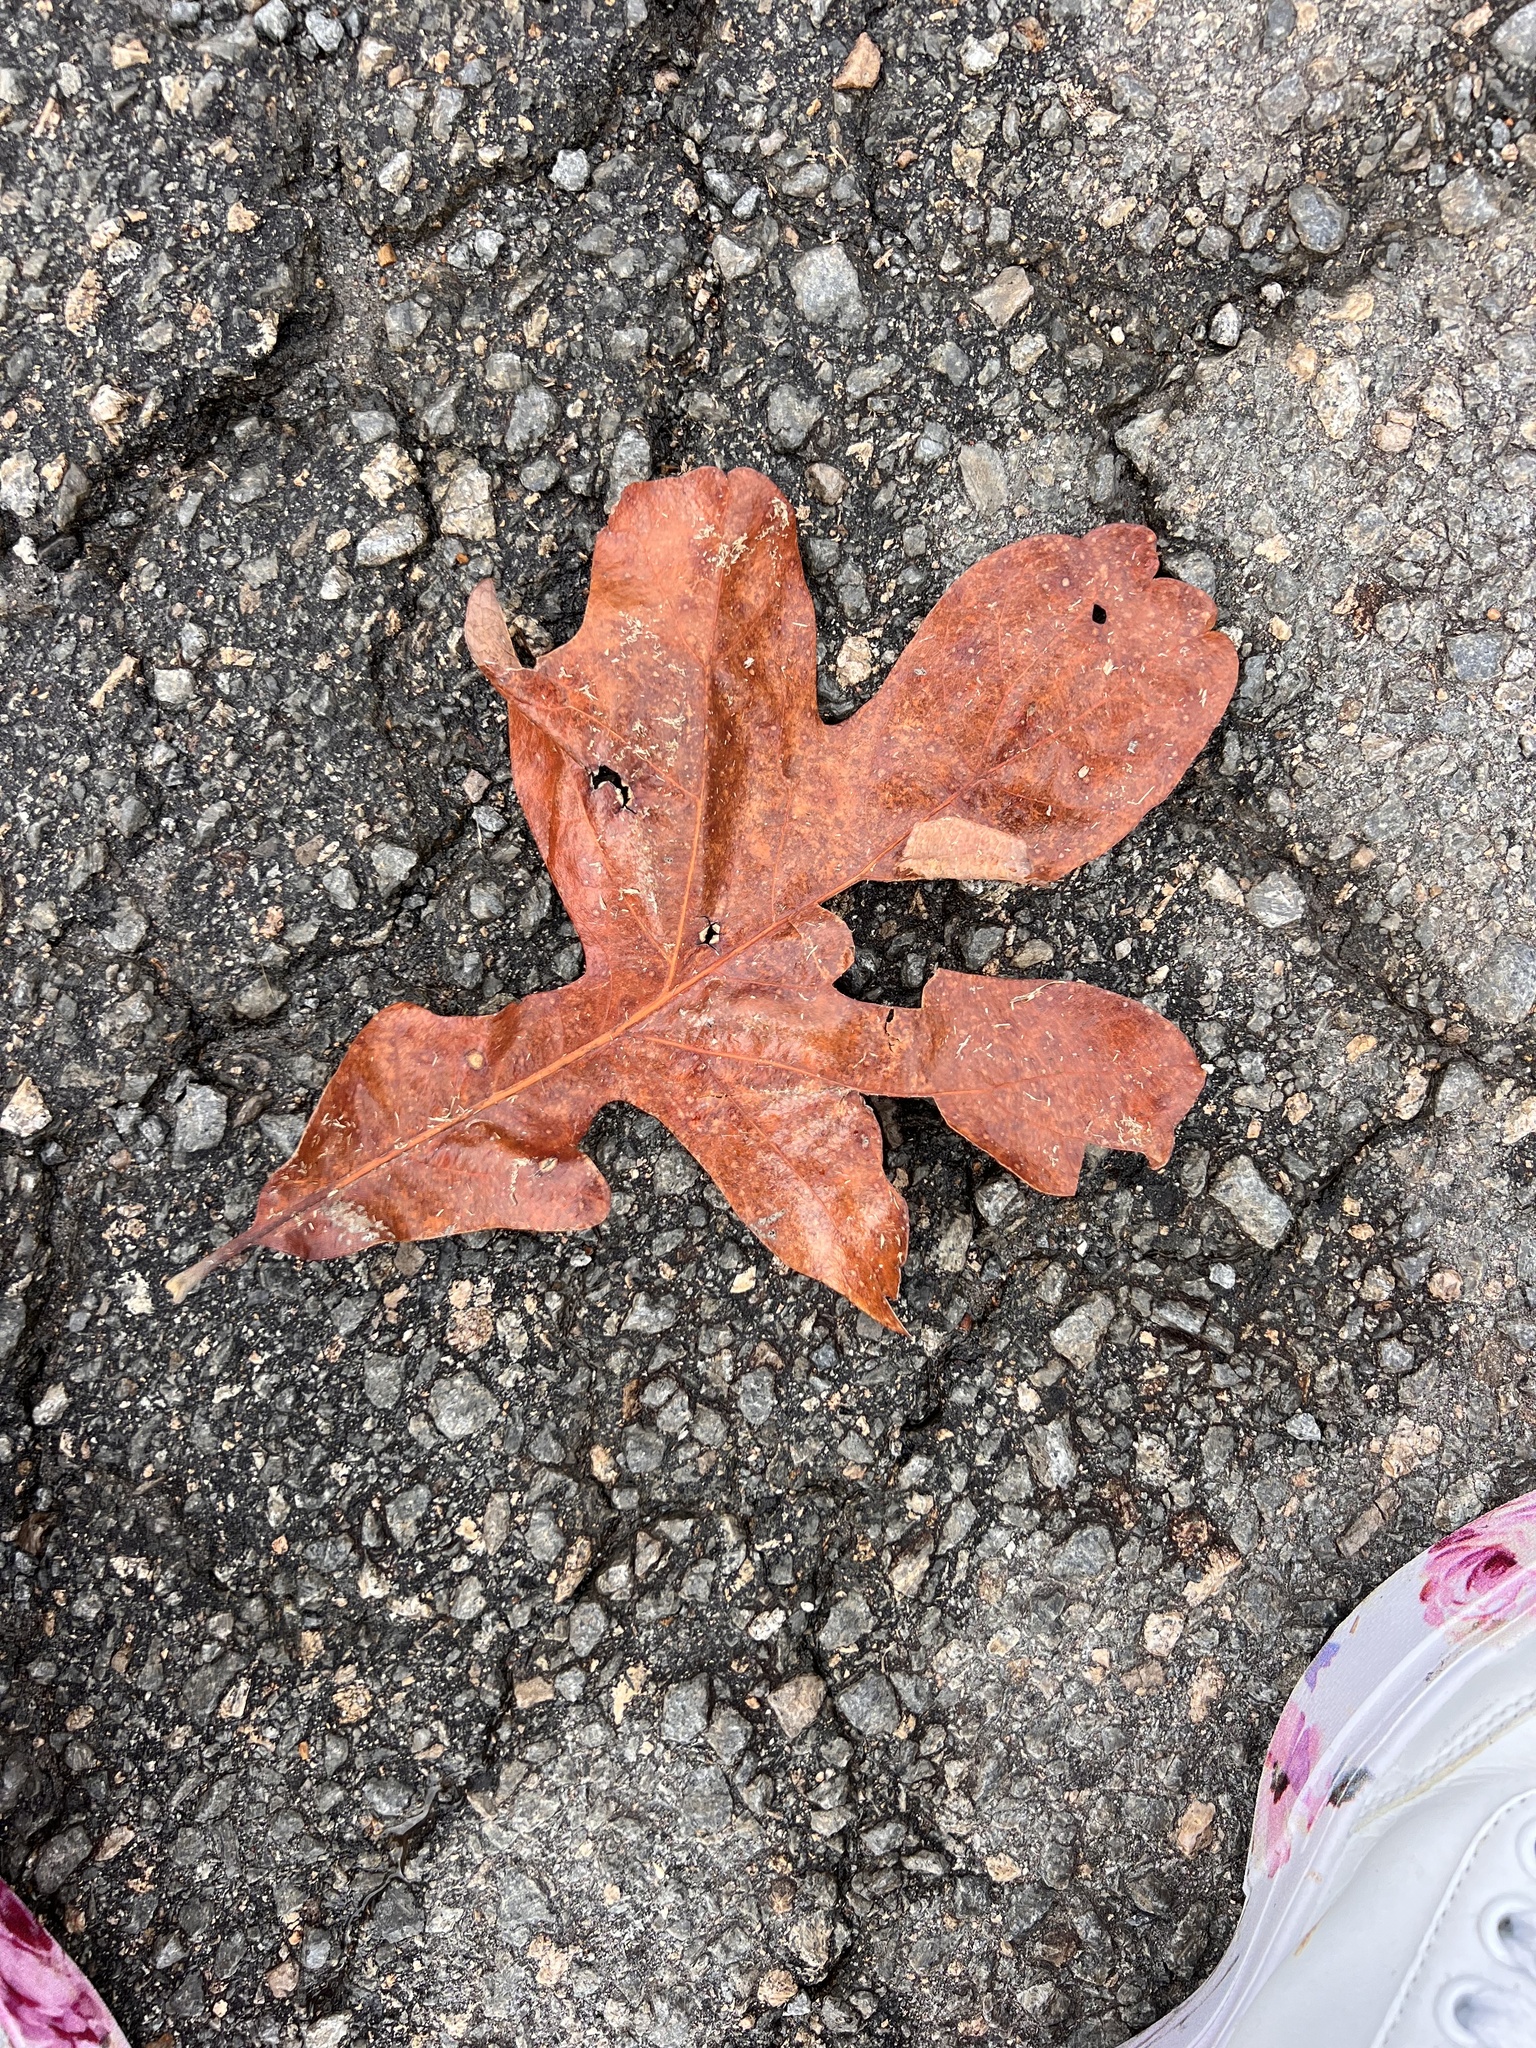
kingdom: Plantae
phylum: Tracheophyta
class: Magnoliopsida
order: Fagales
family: Fagaceae
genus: Quercus
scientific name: Quercus stellata
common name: Post oak
